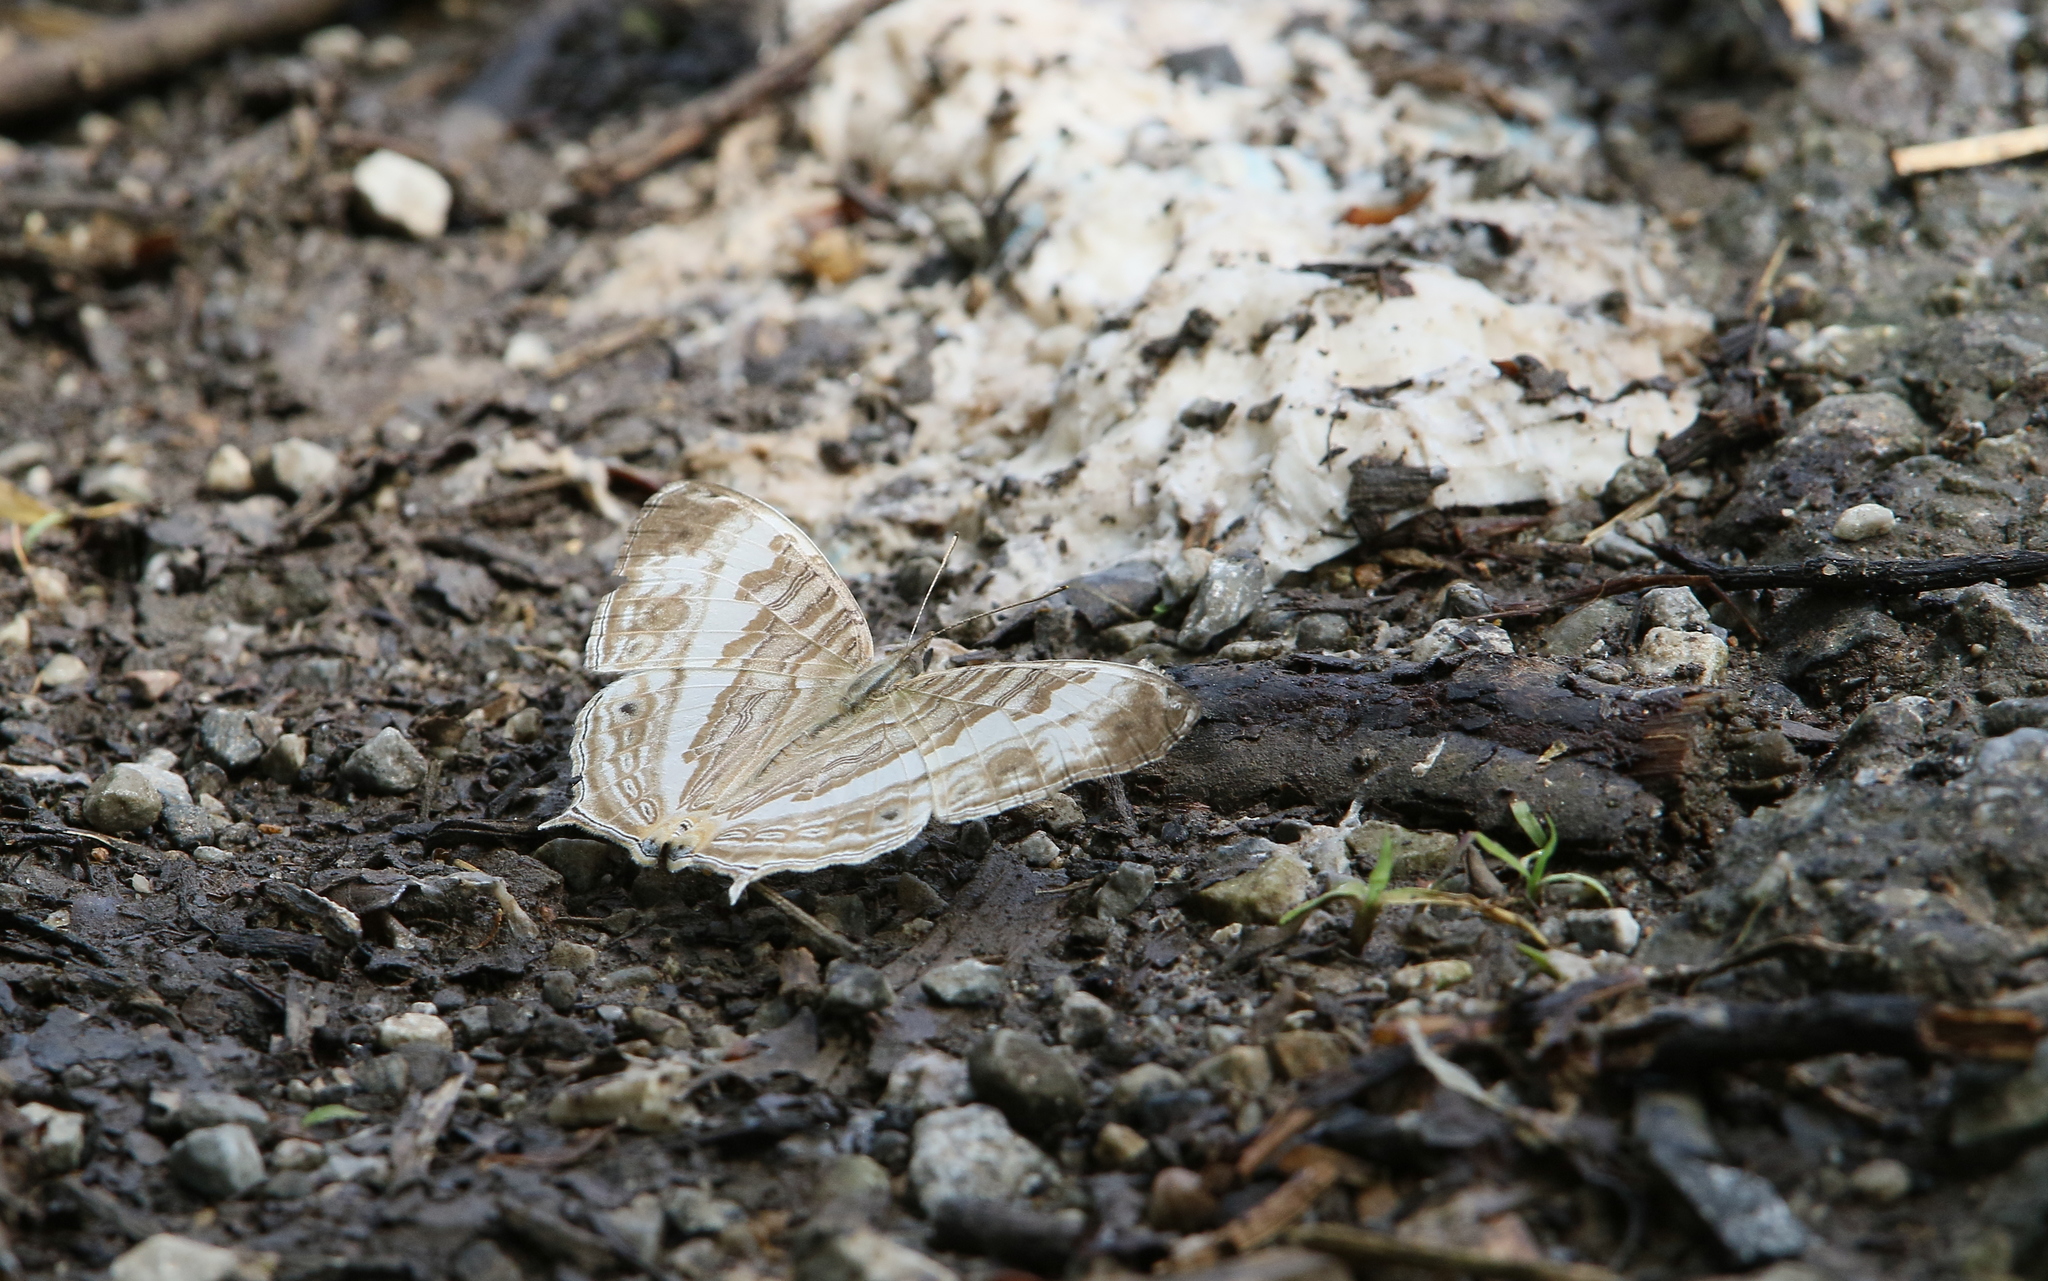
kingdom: Animalia
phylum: Arthropoda
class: Insecta
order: Lepidoptera
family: Nymphalidae
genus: Cyrestis
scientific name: Cyrestis cocles
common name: Marbled map
